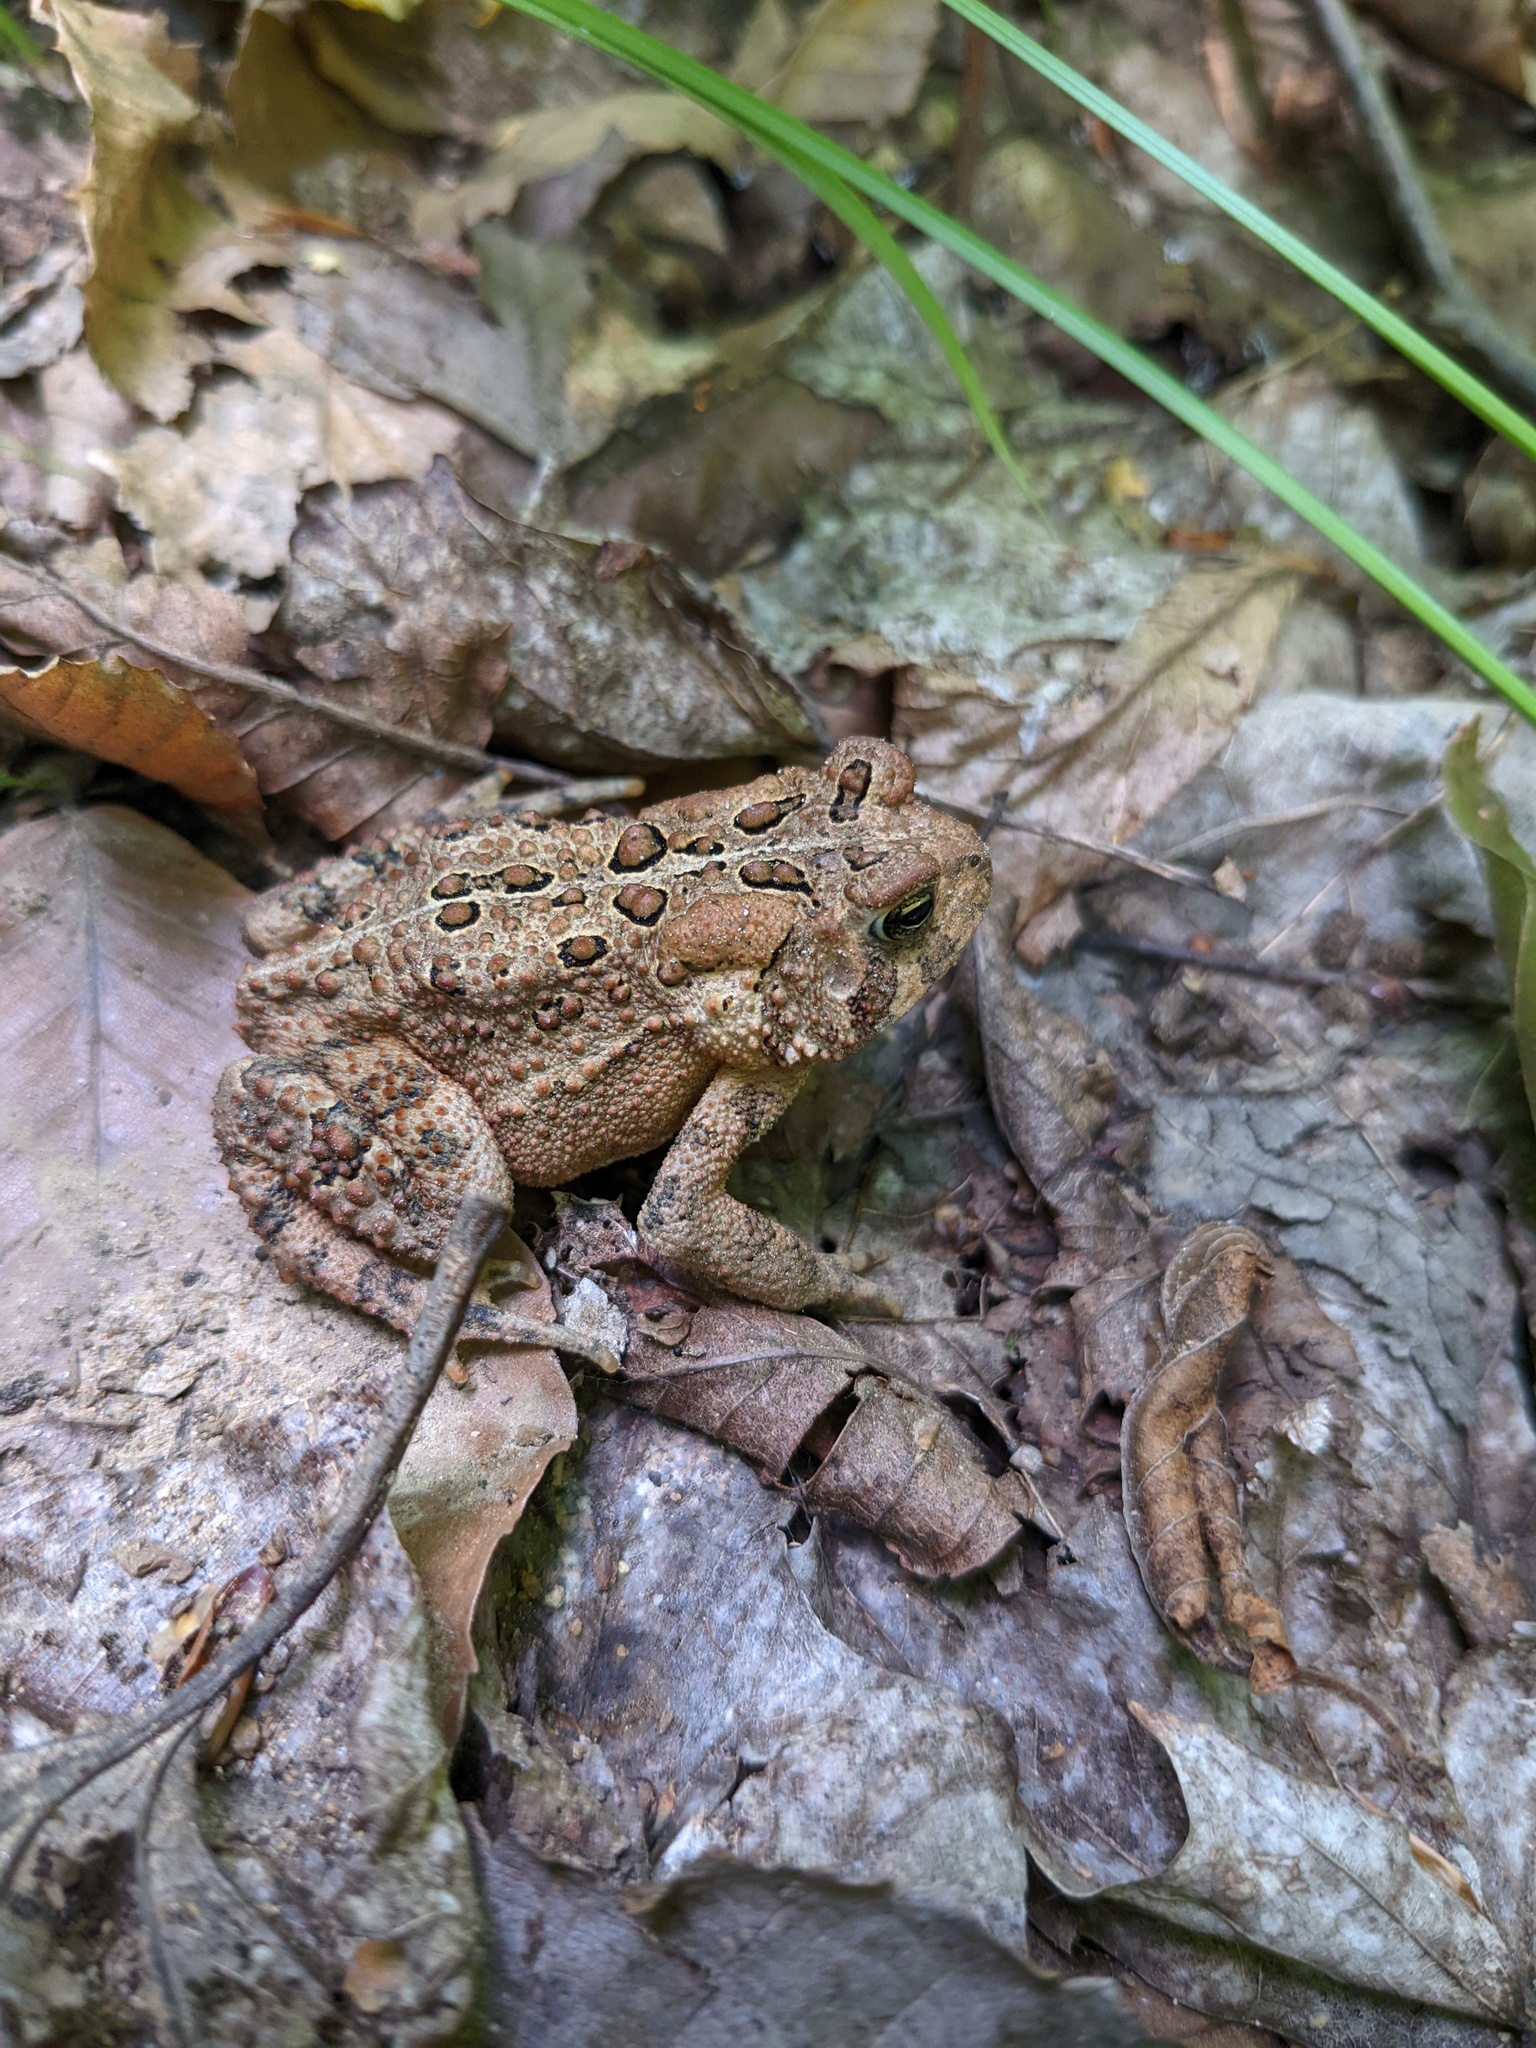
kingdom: Animalia
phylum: Chordata
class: Amphibia
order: Anura
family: Bufonidae
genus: Anaxyrus
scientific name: Anaxyrus americanus
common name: American toad
